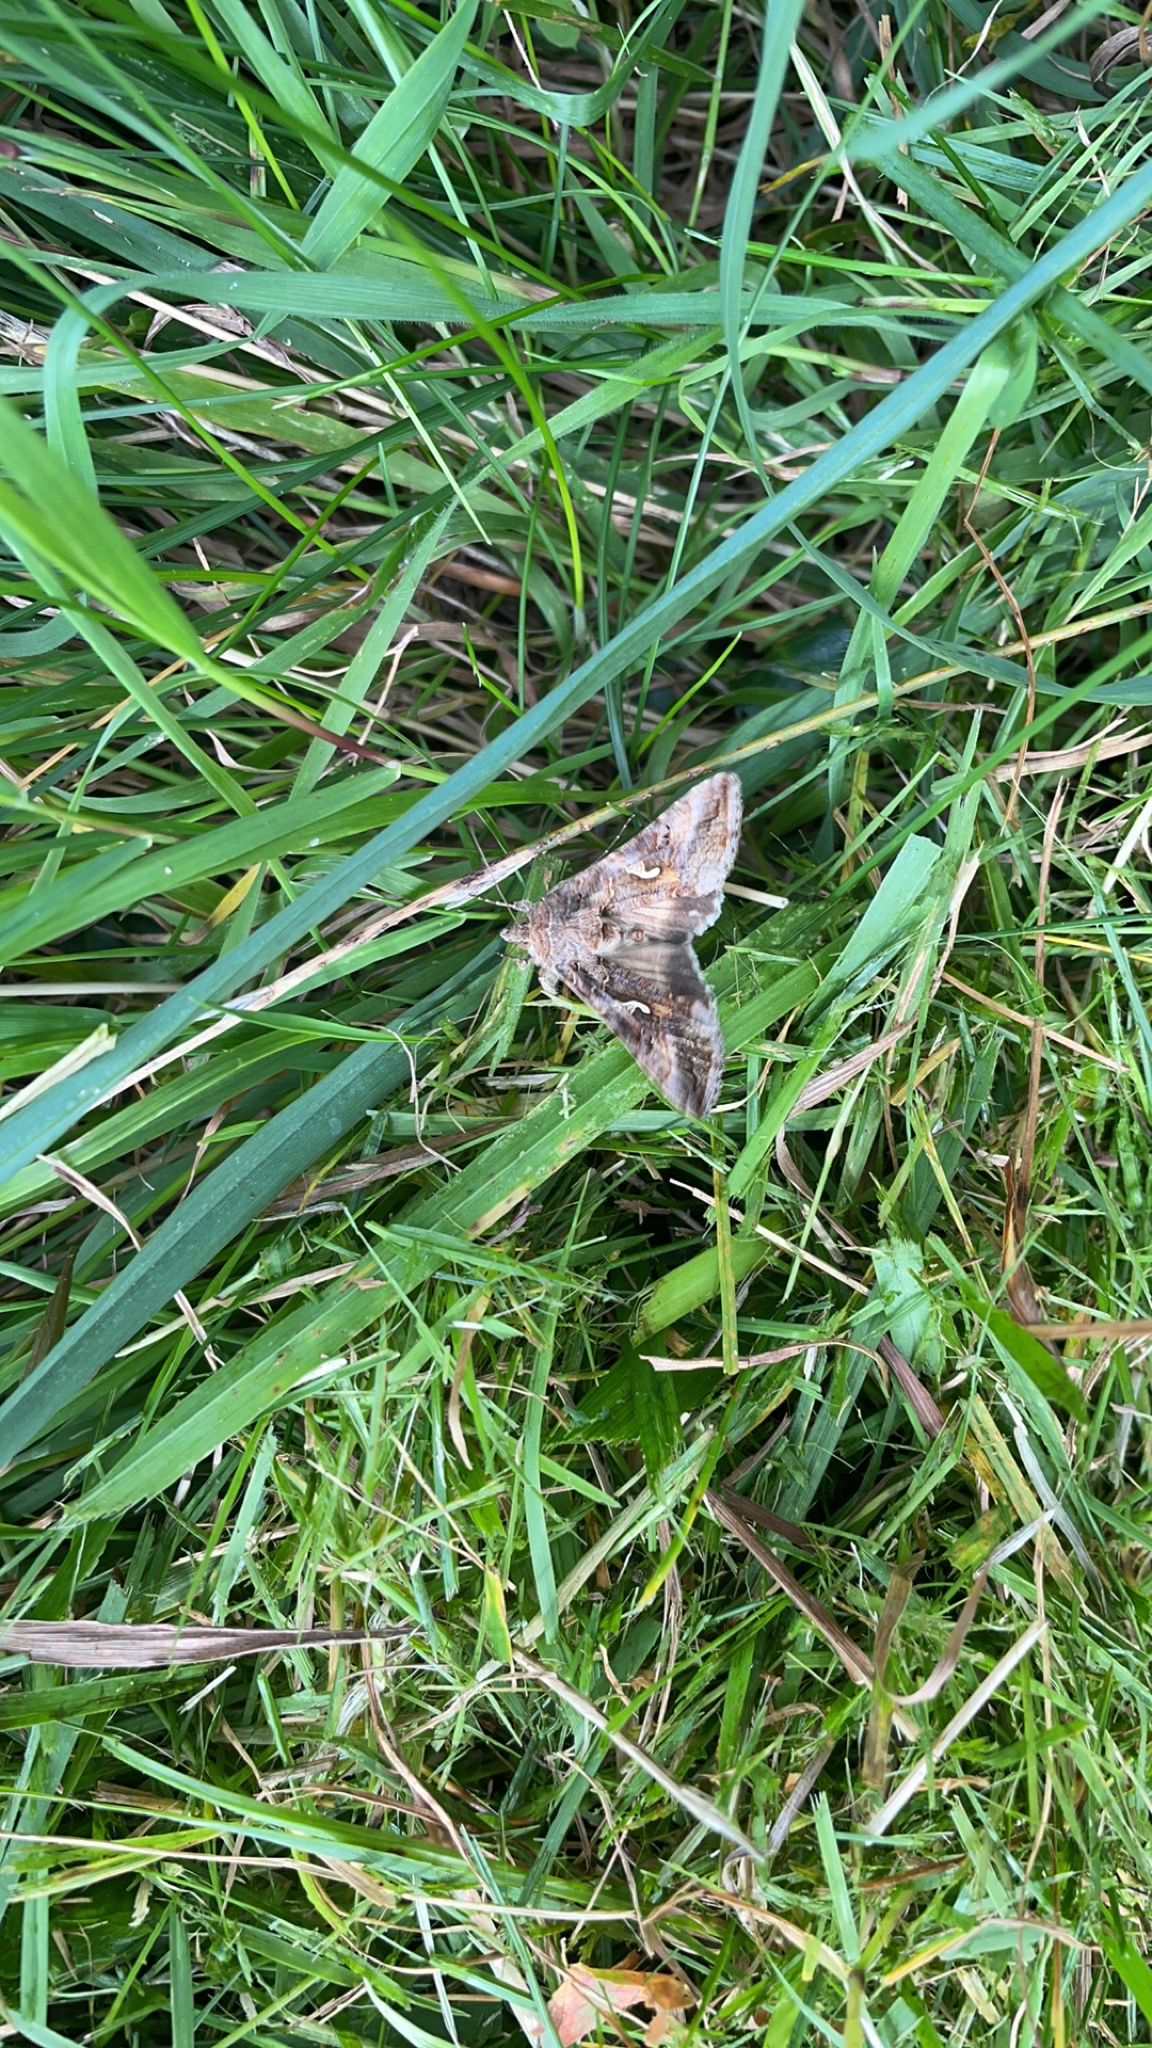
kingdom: Animalia
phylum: Arthropoda
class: Insecta
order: Lepidoptera
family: Noctuidae
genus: Autographa
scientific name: Autographa gamma
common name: Silver y
